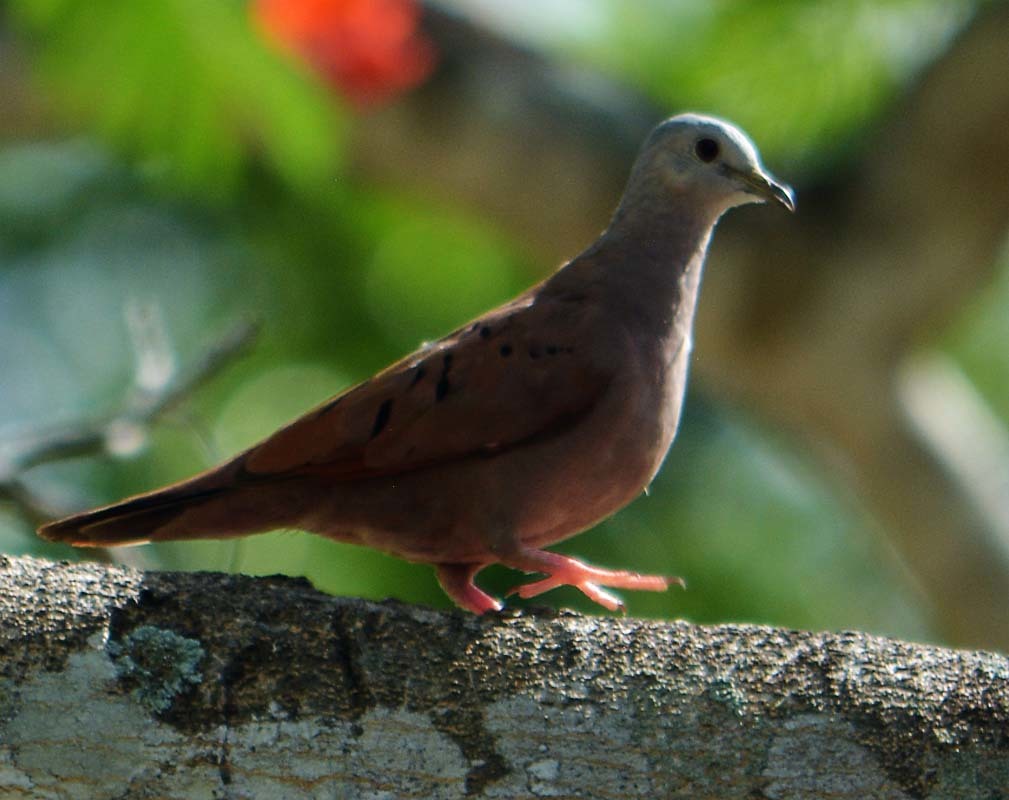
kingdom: Animalia
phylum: Chordata
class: Aves
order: Columbiformes
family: Columbidae
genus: Columbina
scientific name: Columbina talpacoti
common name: Ruddy ground dove
